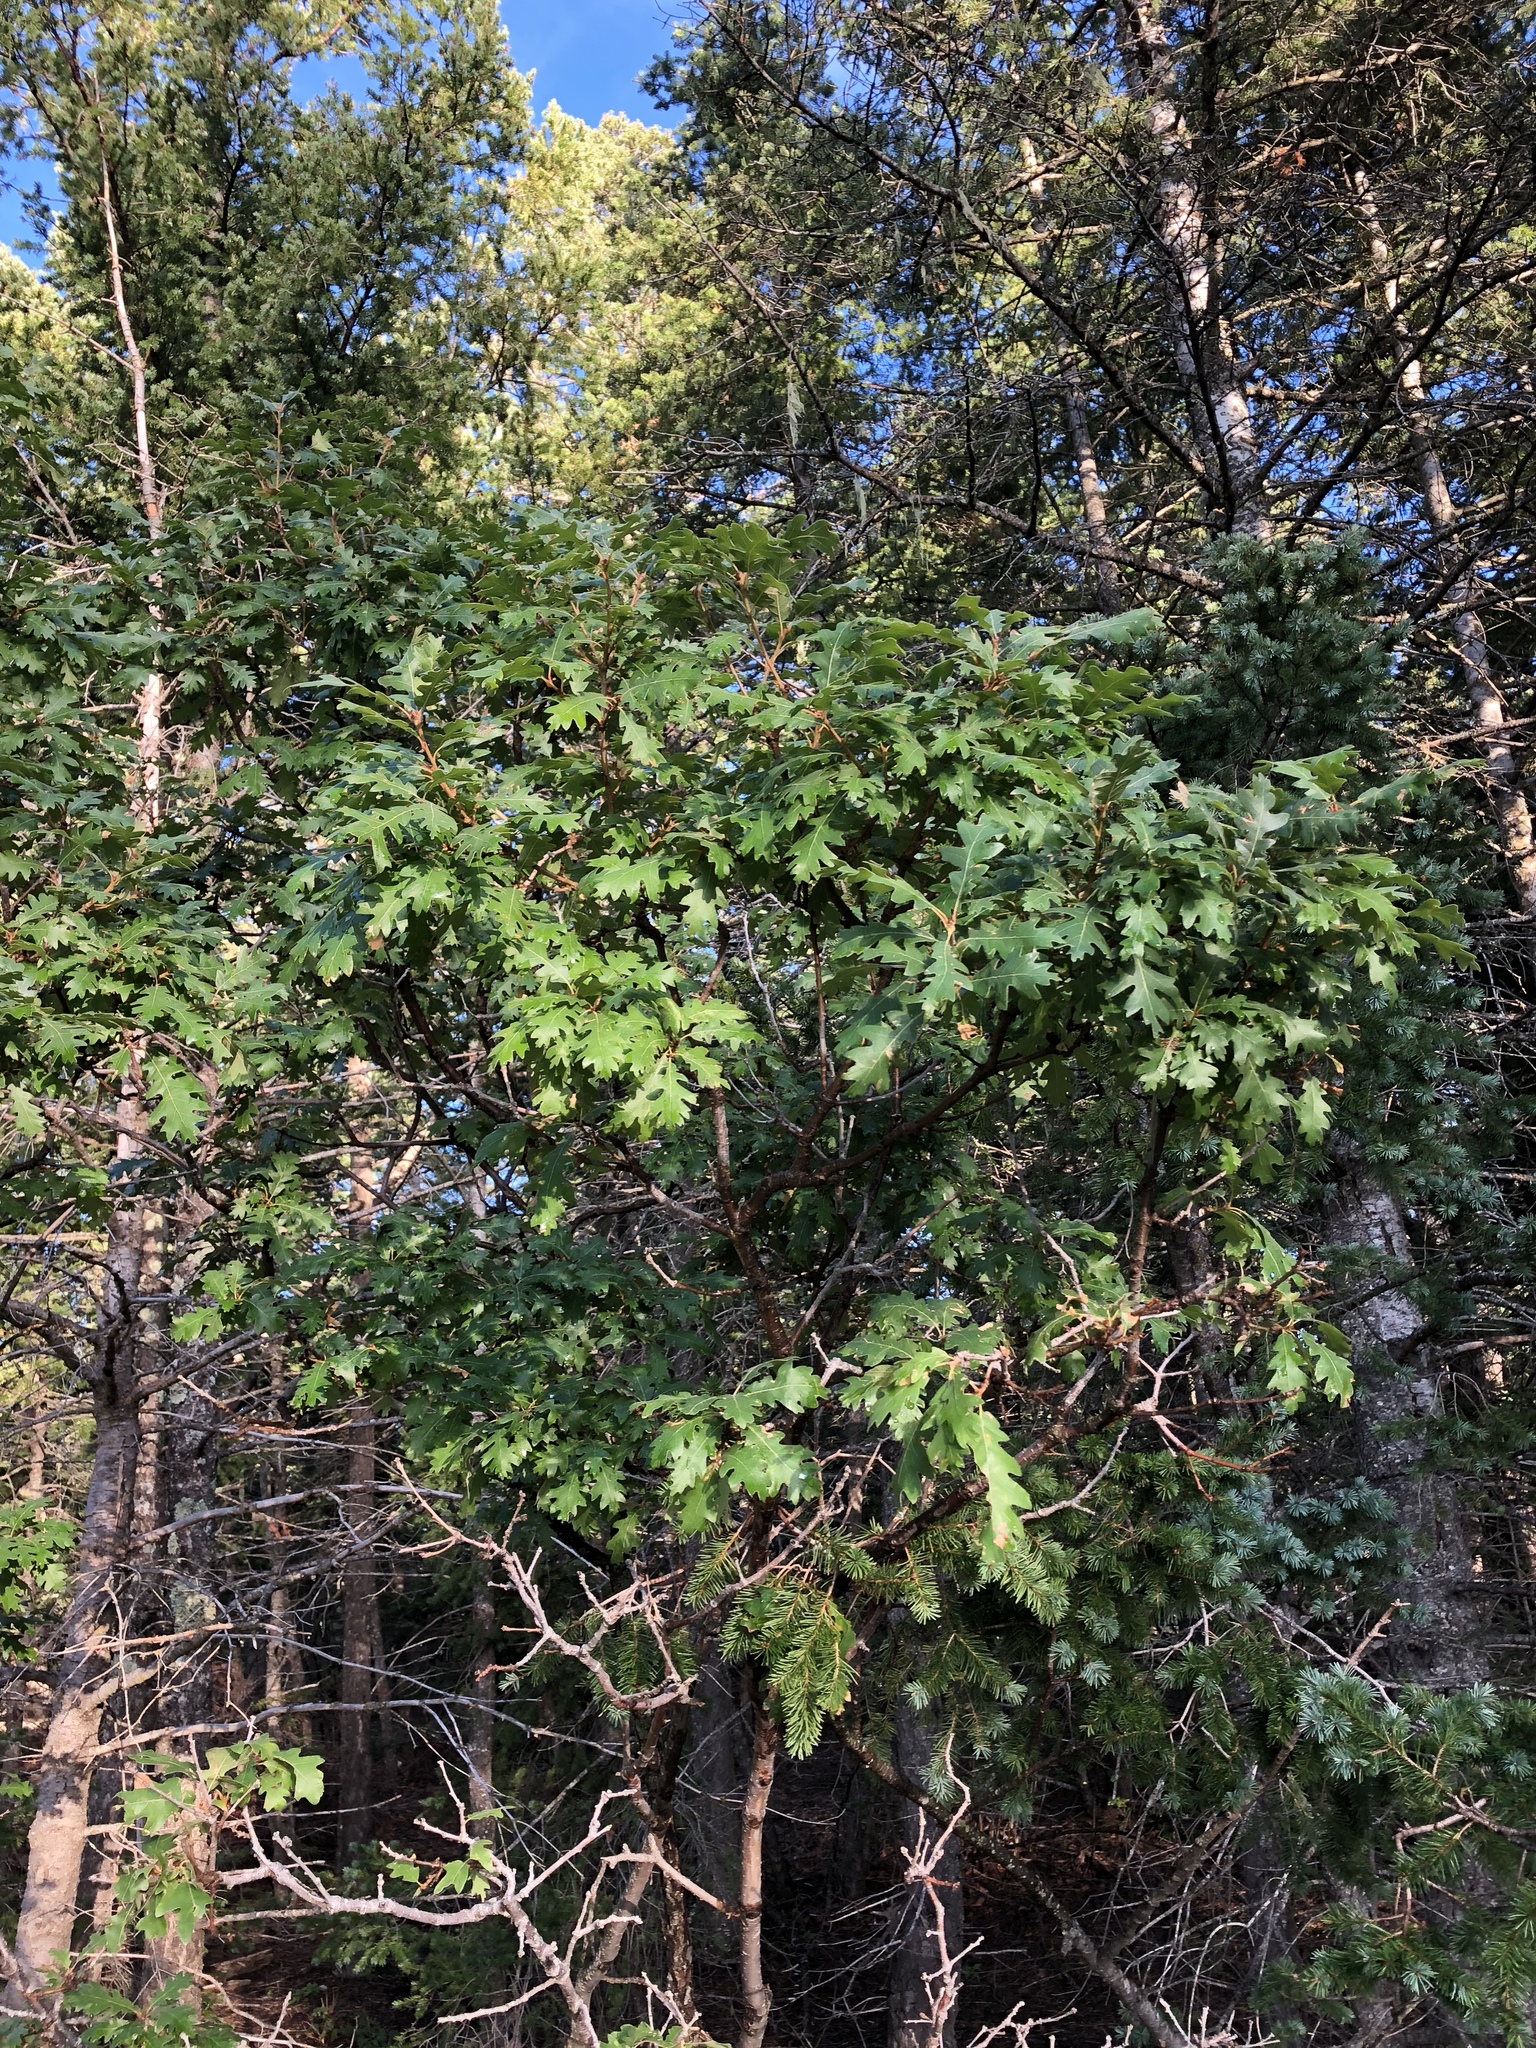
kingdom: Plantae
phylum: Tracheophyta
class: Magnoliopsida
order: Fagales
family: Fagaceae
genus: Quercus
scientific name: Quercus gambelii
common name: Gambel oak
